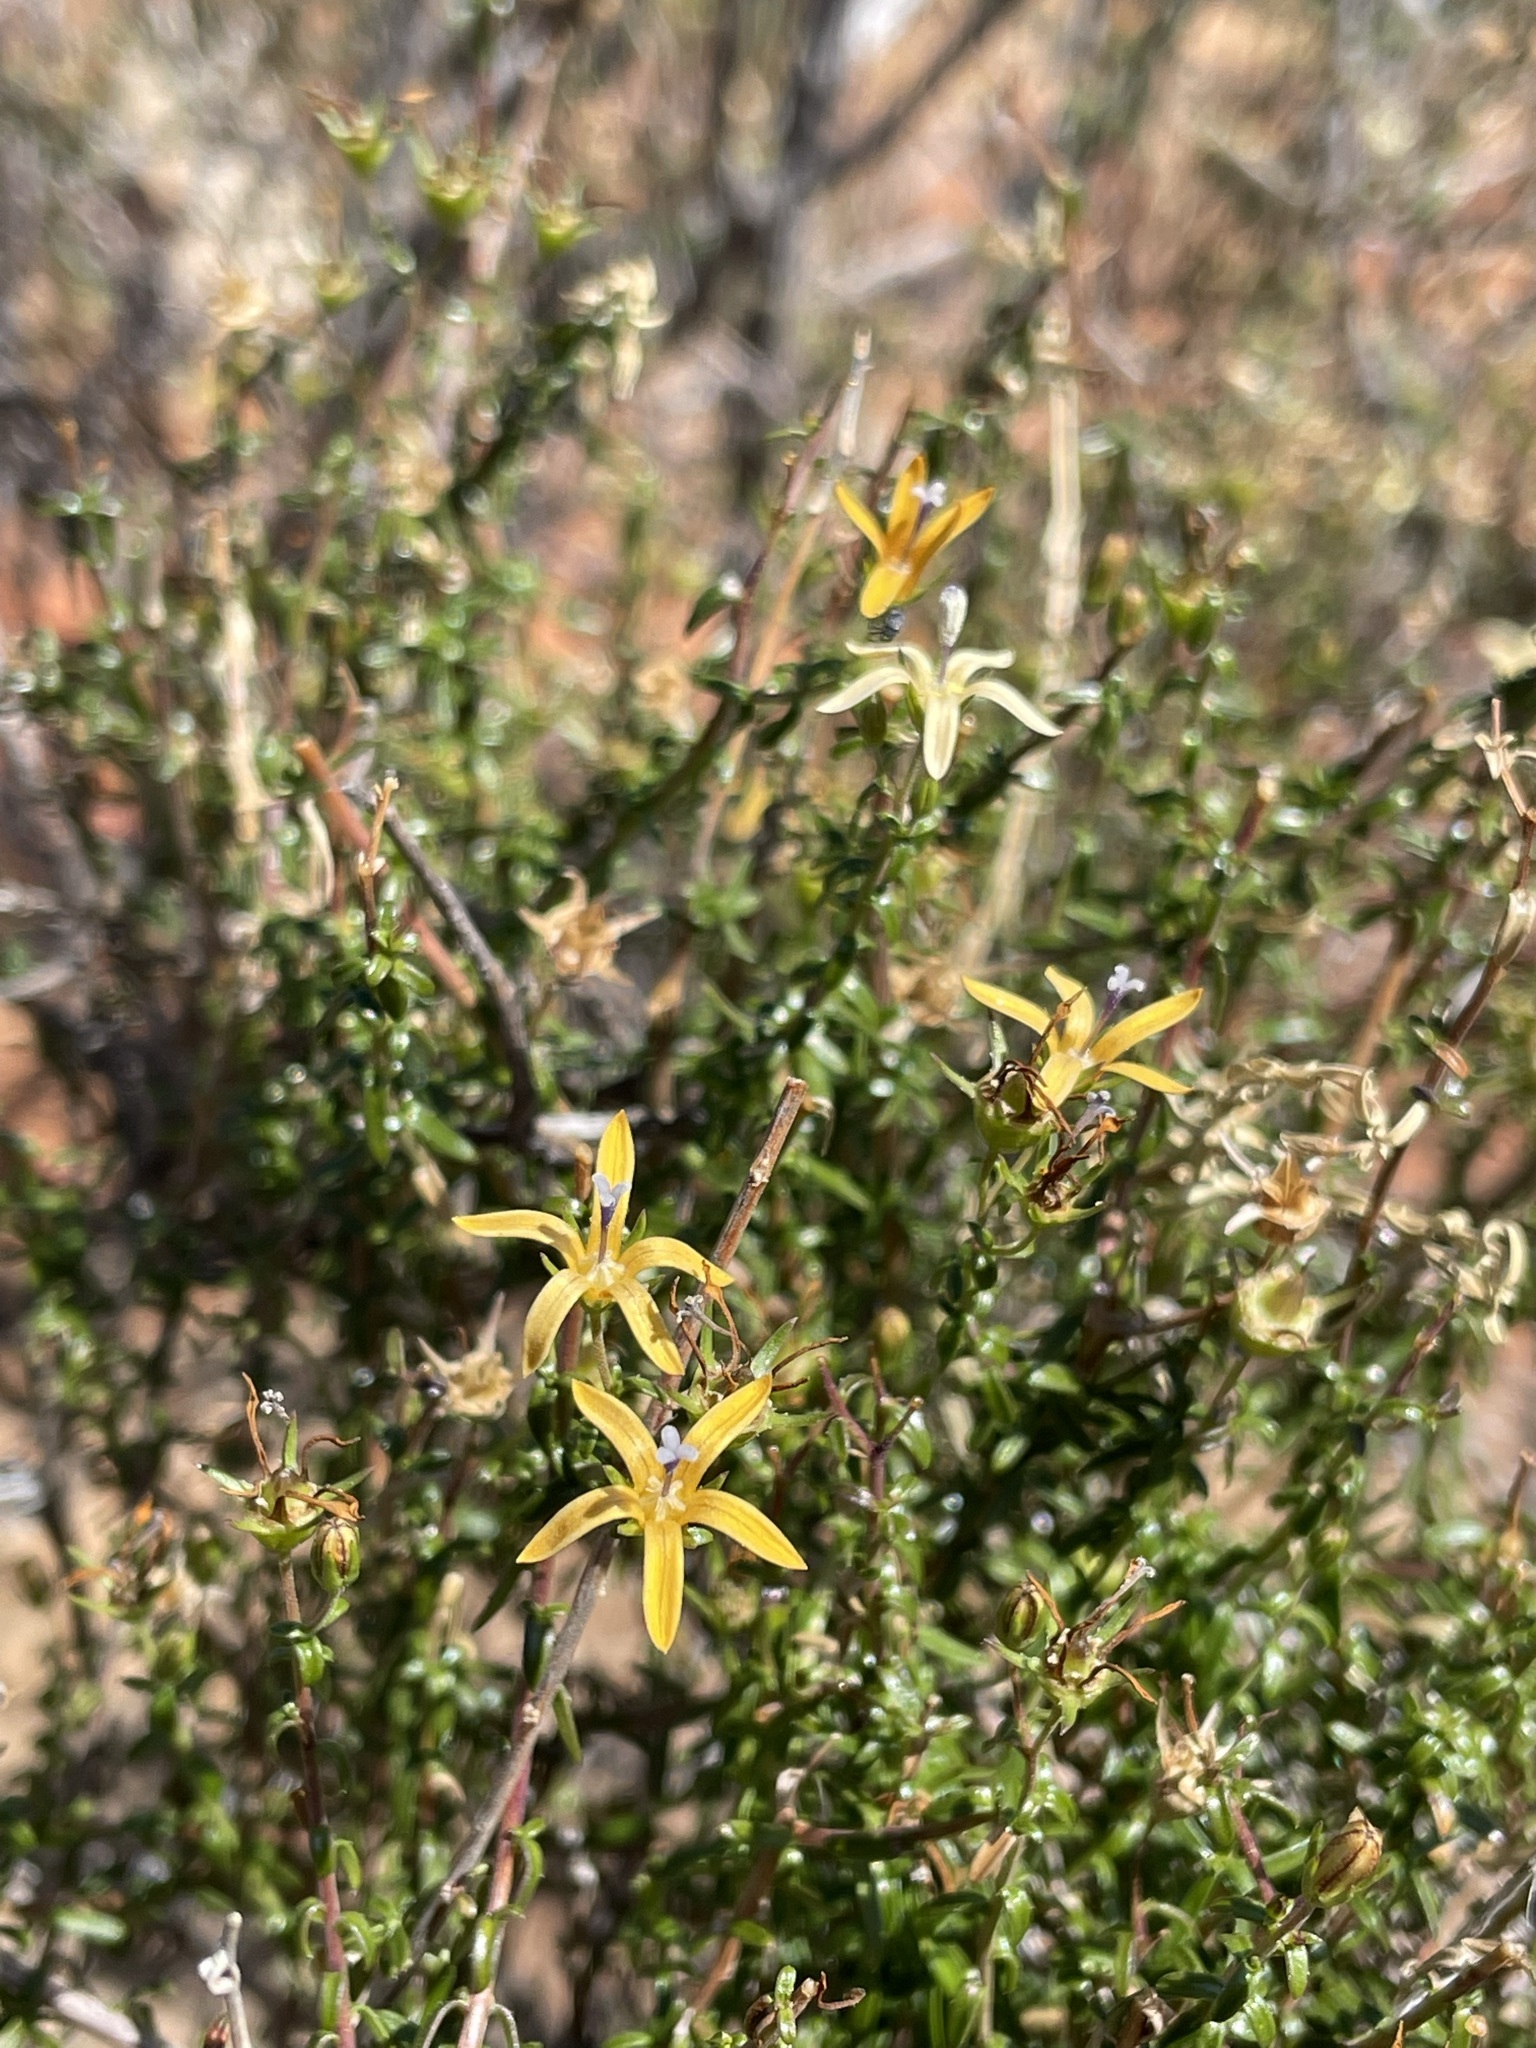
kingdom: Plantae
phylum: Tracheophyta
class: Magnoliopsida
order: Asterales
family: Campanulaceae
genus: Wahlenbergia
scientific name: Wahlenbergia nodosa
